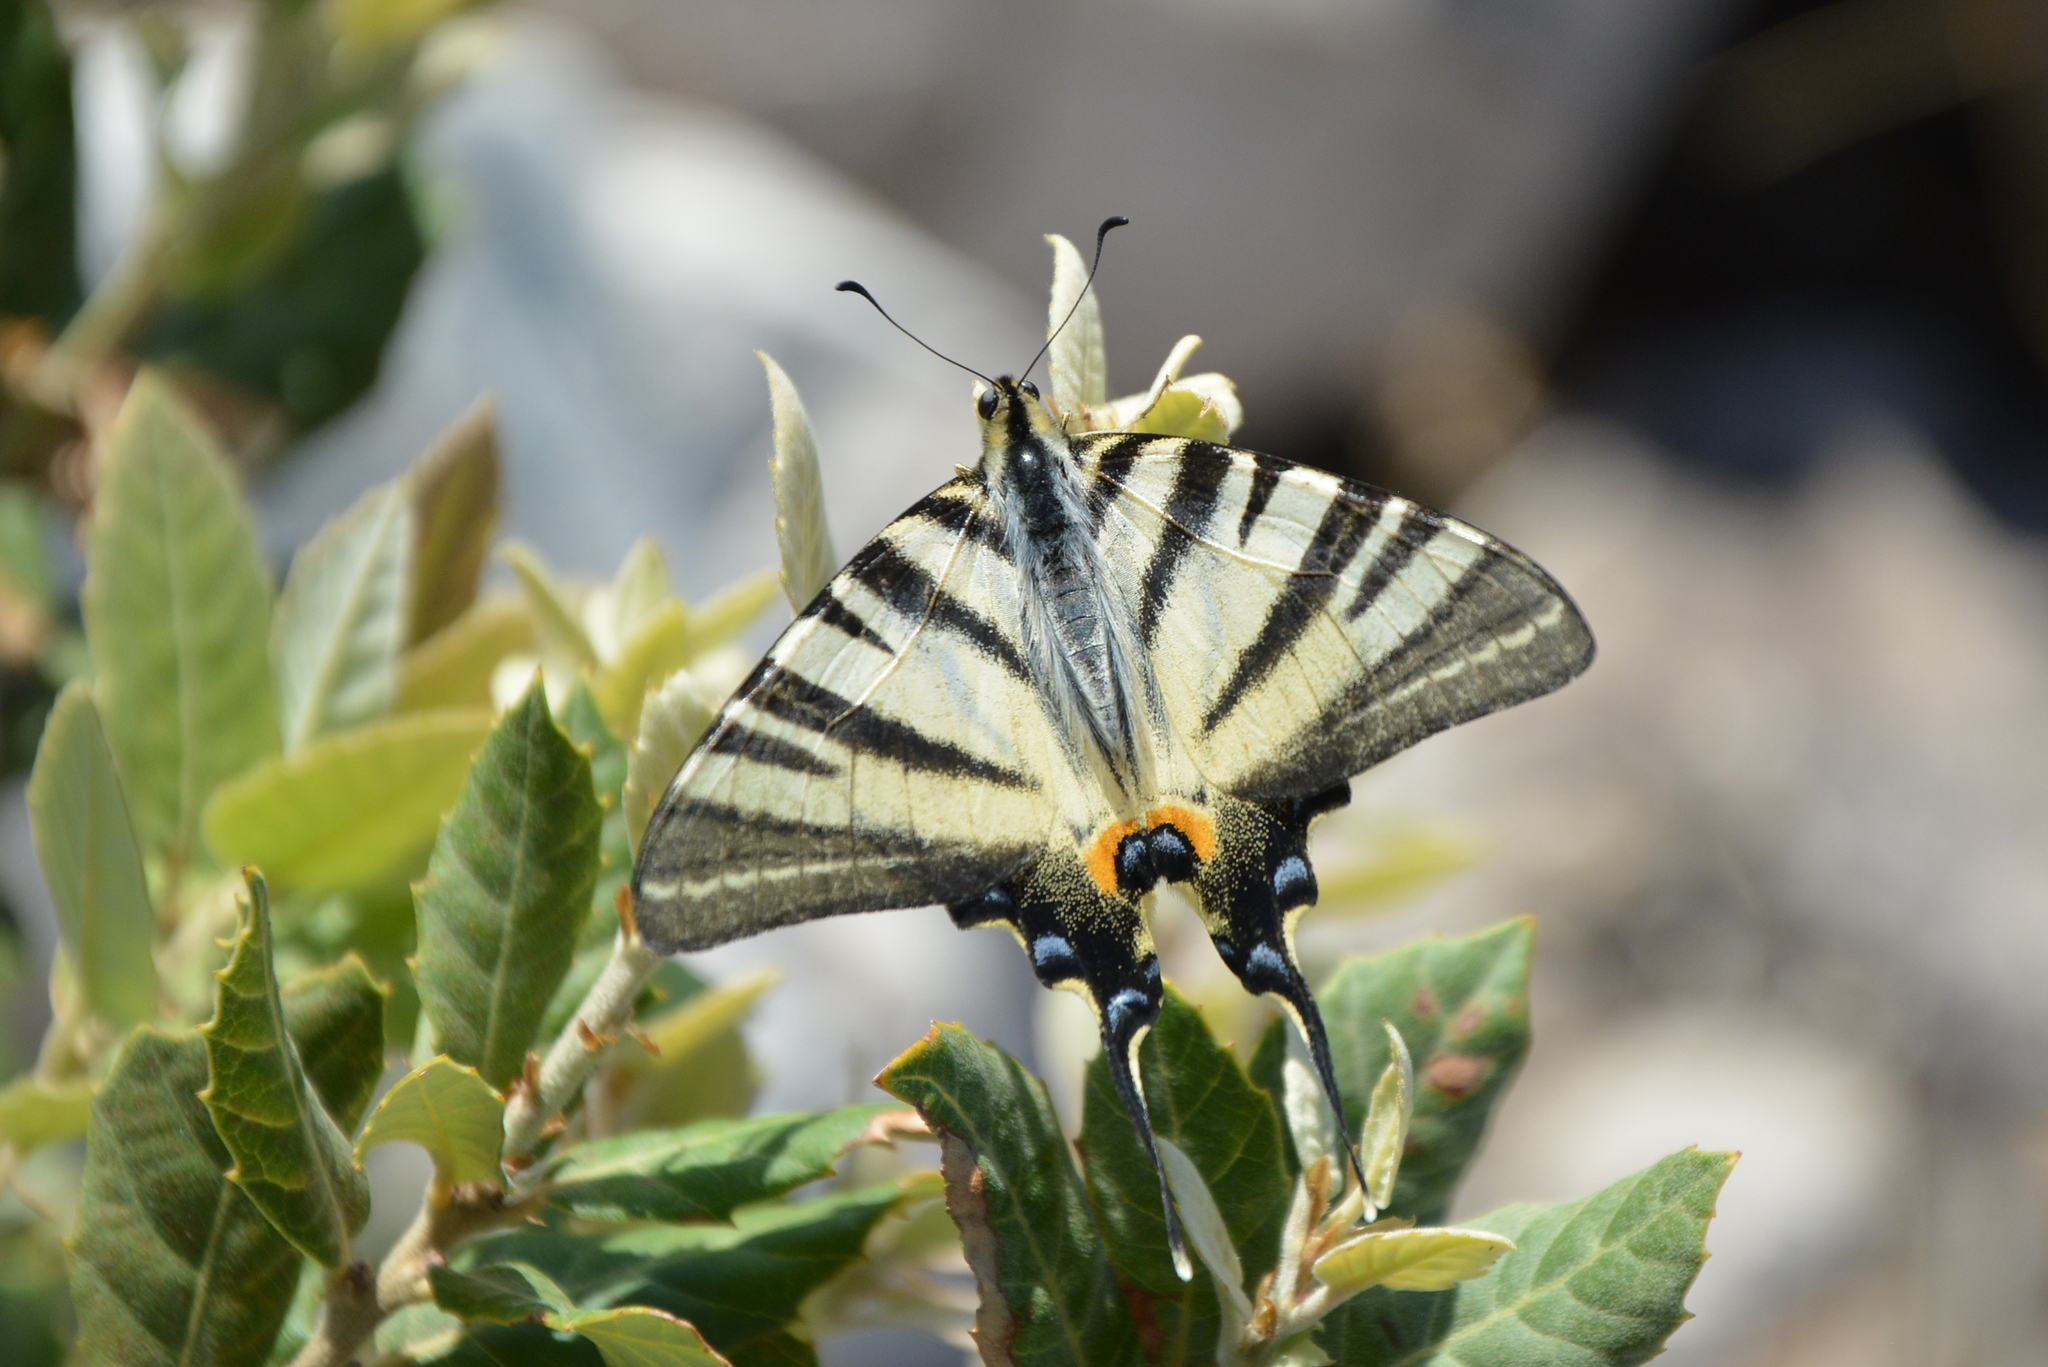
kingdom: Animalia
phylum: Arthropoda
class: Insecta
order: Lepidoptera
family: Papilionidae
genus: Iphiclides
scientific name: Iphiclides podalirius
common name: Scarce swallowtail
